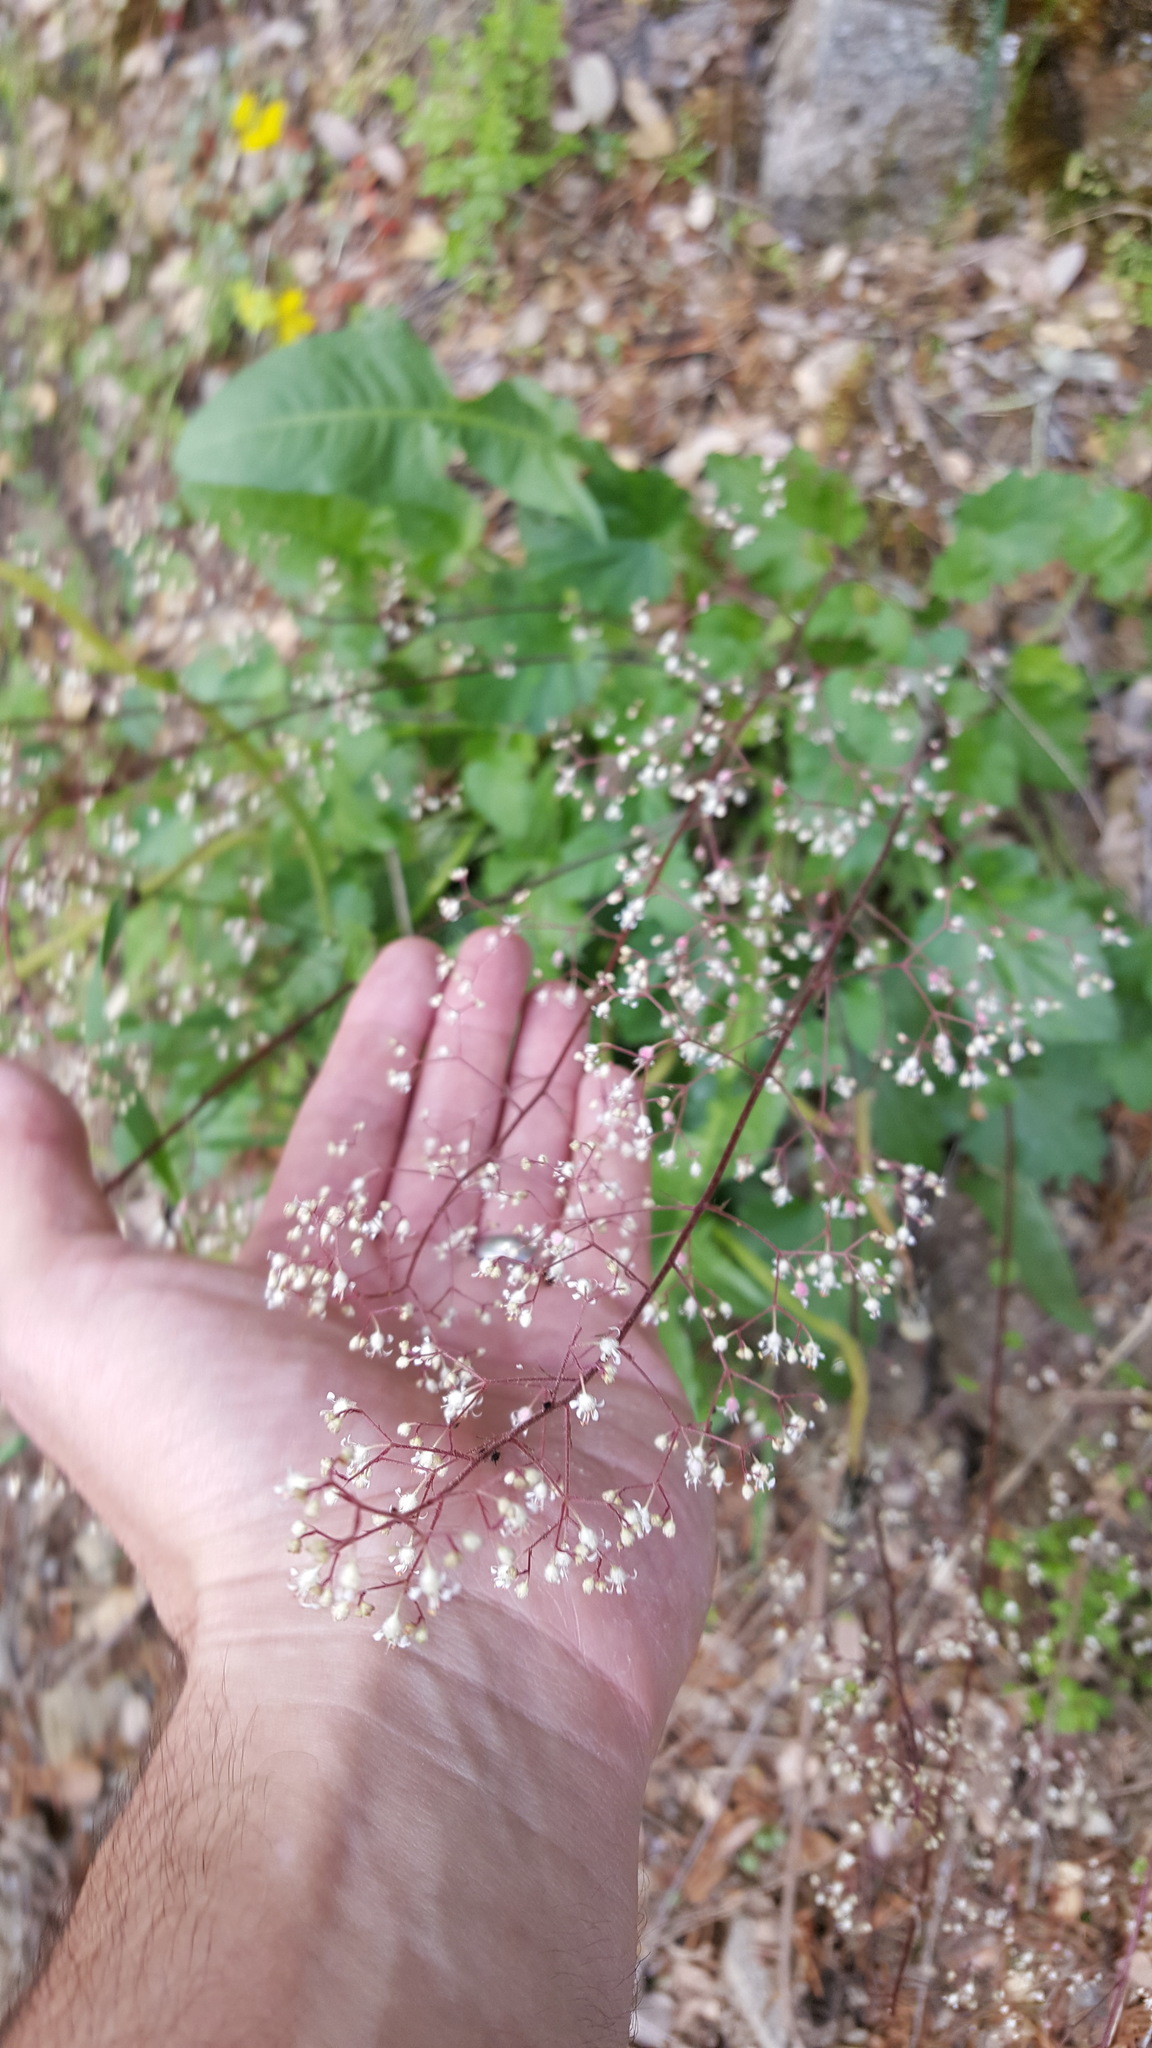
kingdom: Plantae
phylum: Tracheophyta
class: Magnoliopsida
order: Saxifragales
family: Saxifragaceae
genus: Heuchera
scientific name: Heuchera micrantha
